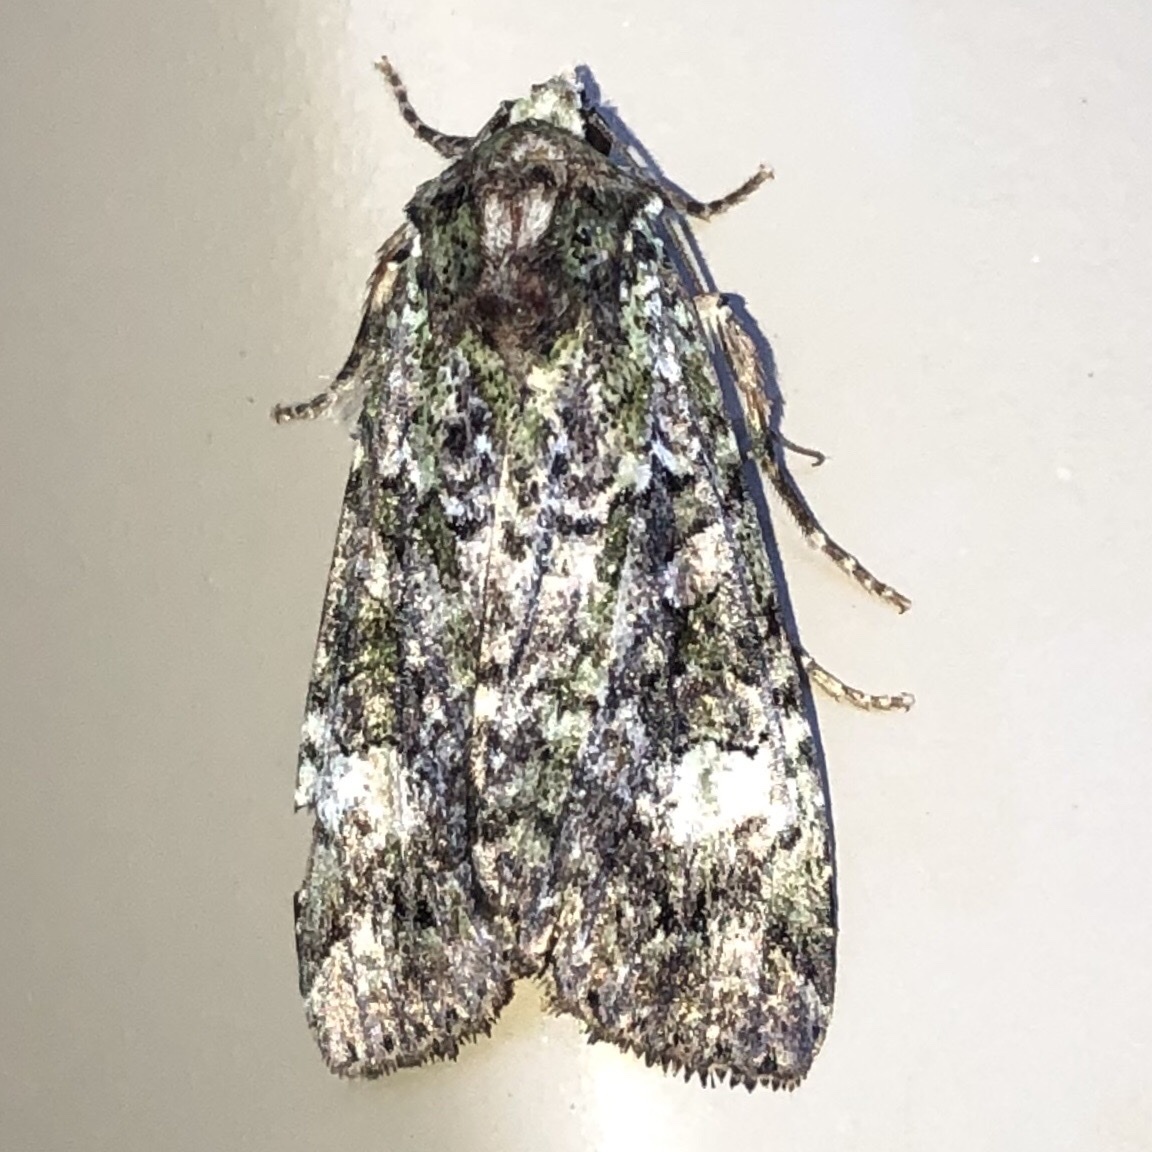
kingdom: Animalia
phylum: Arthropoda
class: Insecta
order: Lepidoptera
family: Noctuidae
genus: Anaplectoides
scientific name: Anaplectoides prasina
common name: Green arches
